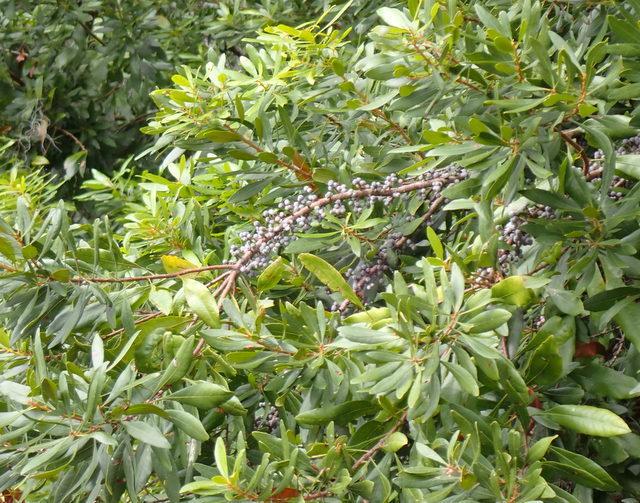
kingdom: Plantae
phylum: Tracheophyta
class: Magnoliopsida
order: Fagales
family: Myricaceae
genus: Morella
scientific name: Morella cerifera
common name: Wax myrtle
